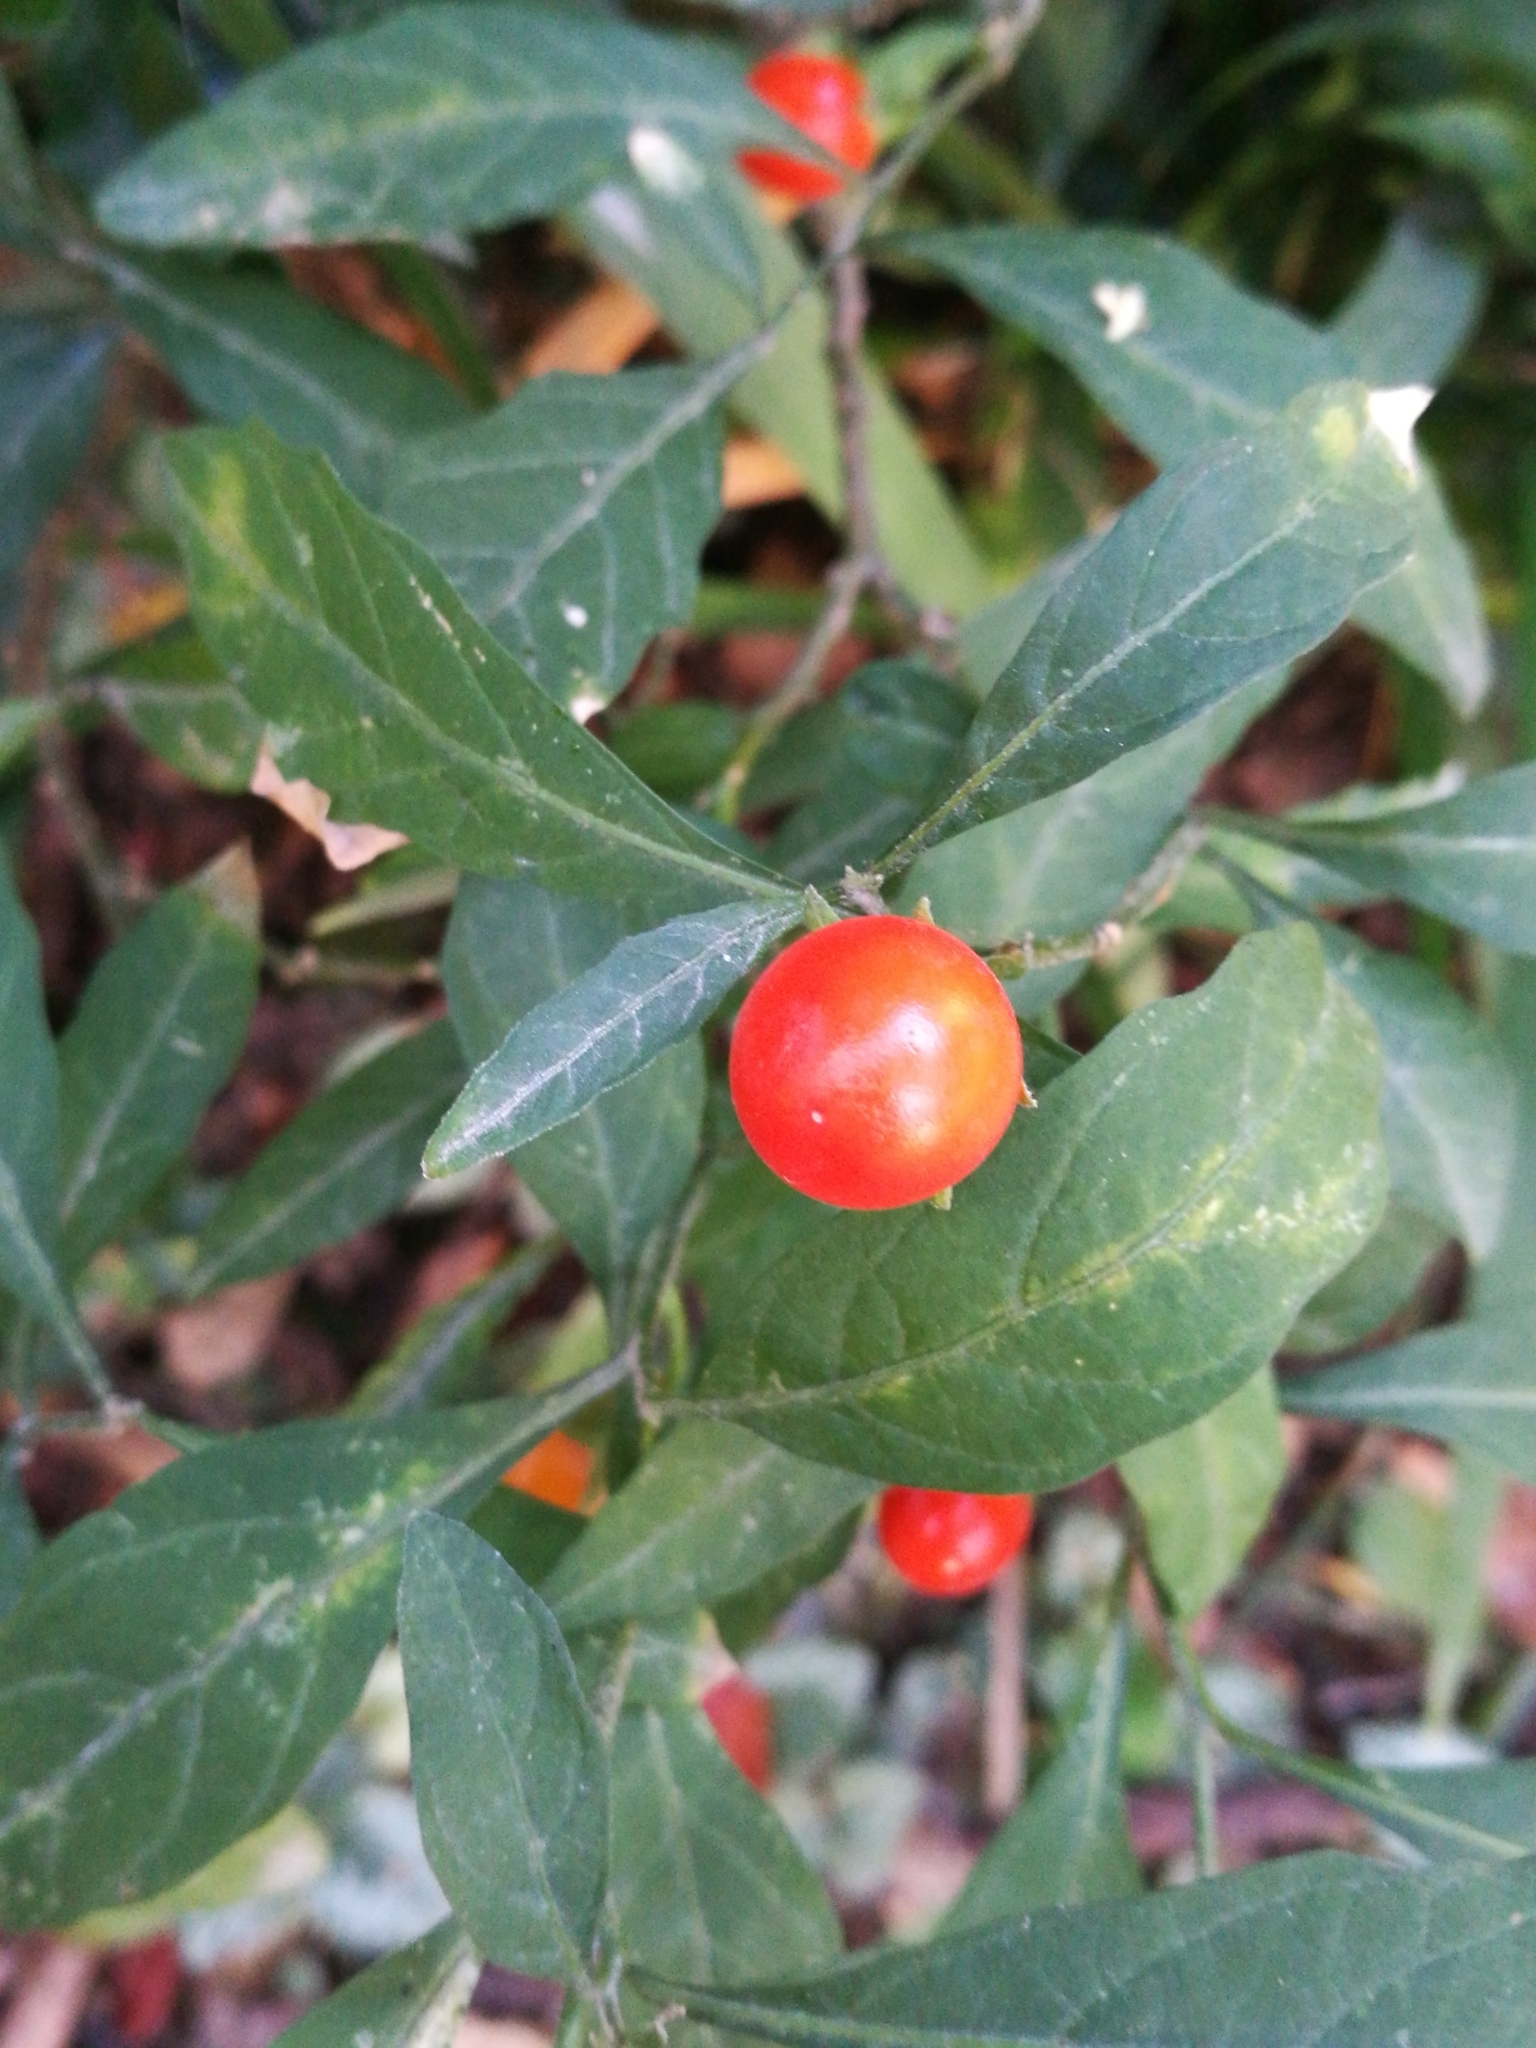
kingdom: Plantae
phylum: Tracheophyta
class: Magnoliopsida
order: Solanales
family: Solanaceae
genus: Solanum
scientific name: Solanum pseudocapsicum
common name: Jerusalem cherry
